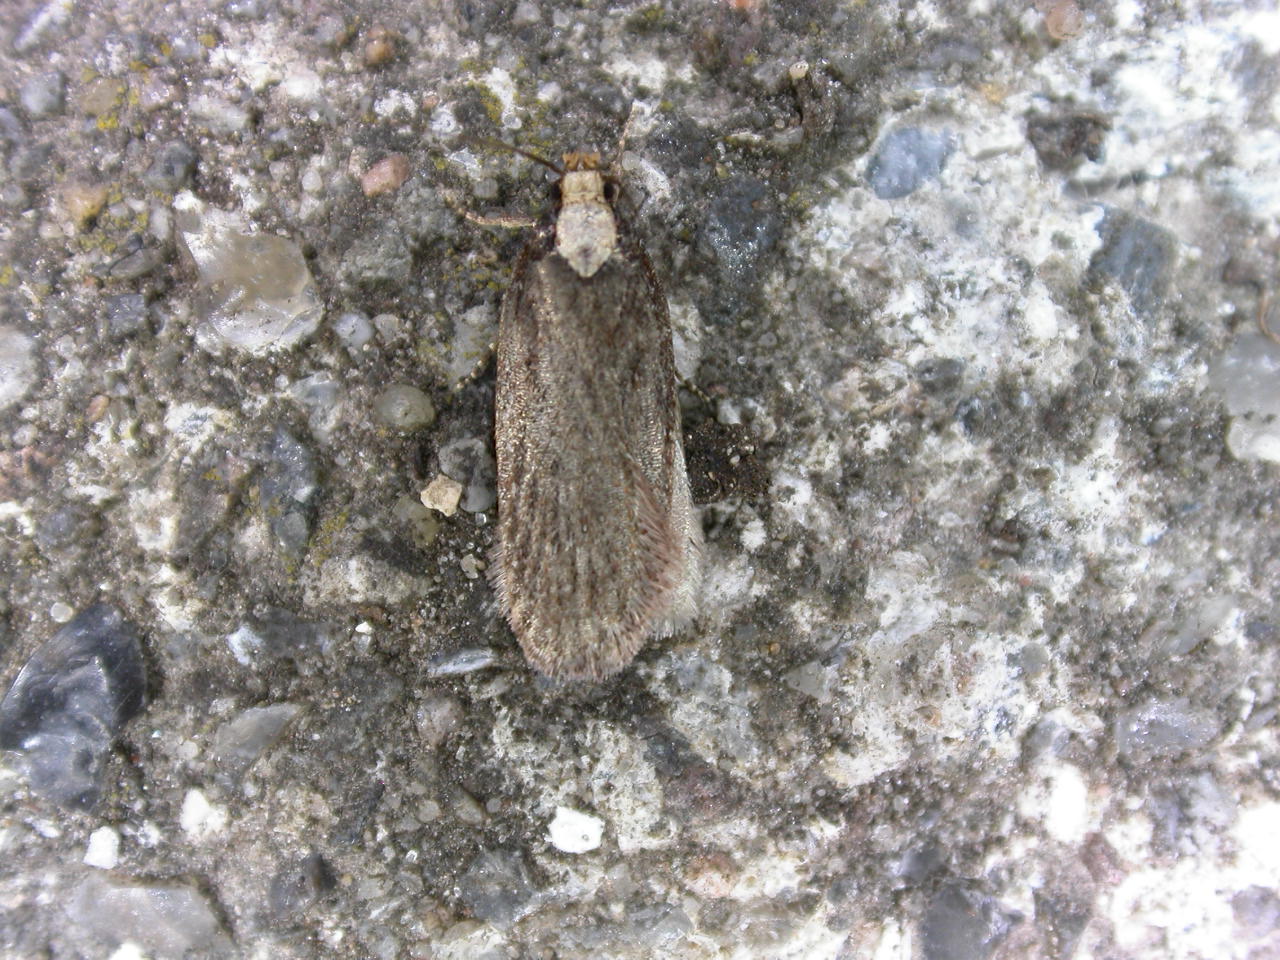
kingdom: Animalia
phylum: Arthropoda
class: Insecta
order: Lepidoptera
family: Depressariidae
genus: Depressaria
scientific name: Depressaria emeritella
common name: Tansy flat-body
